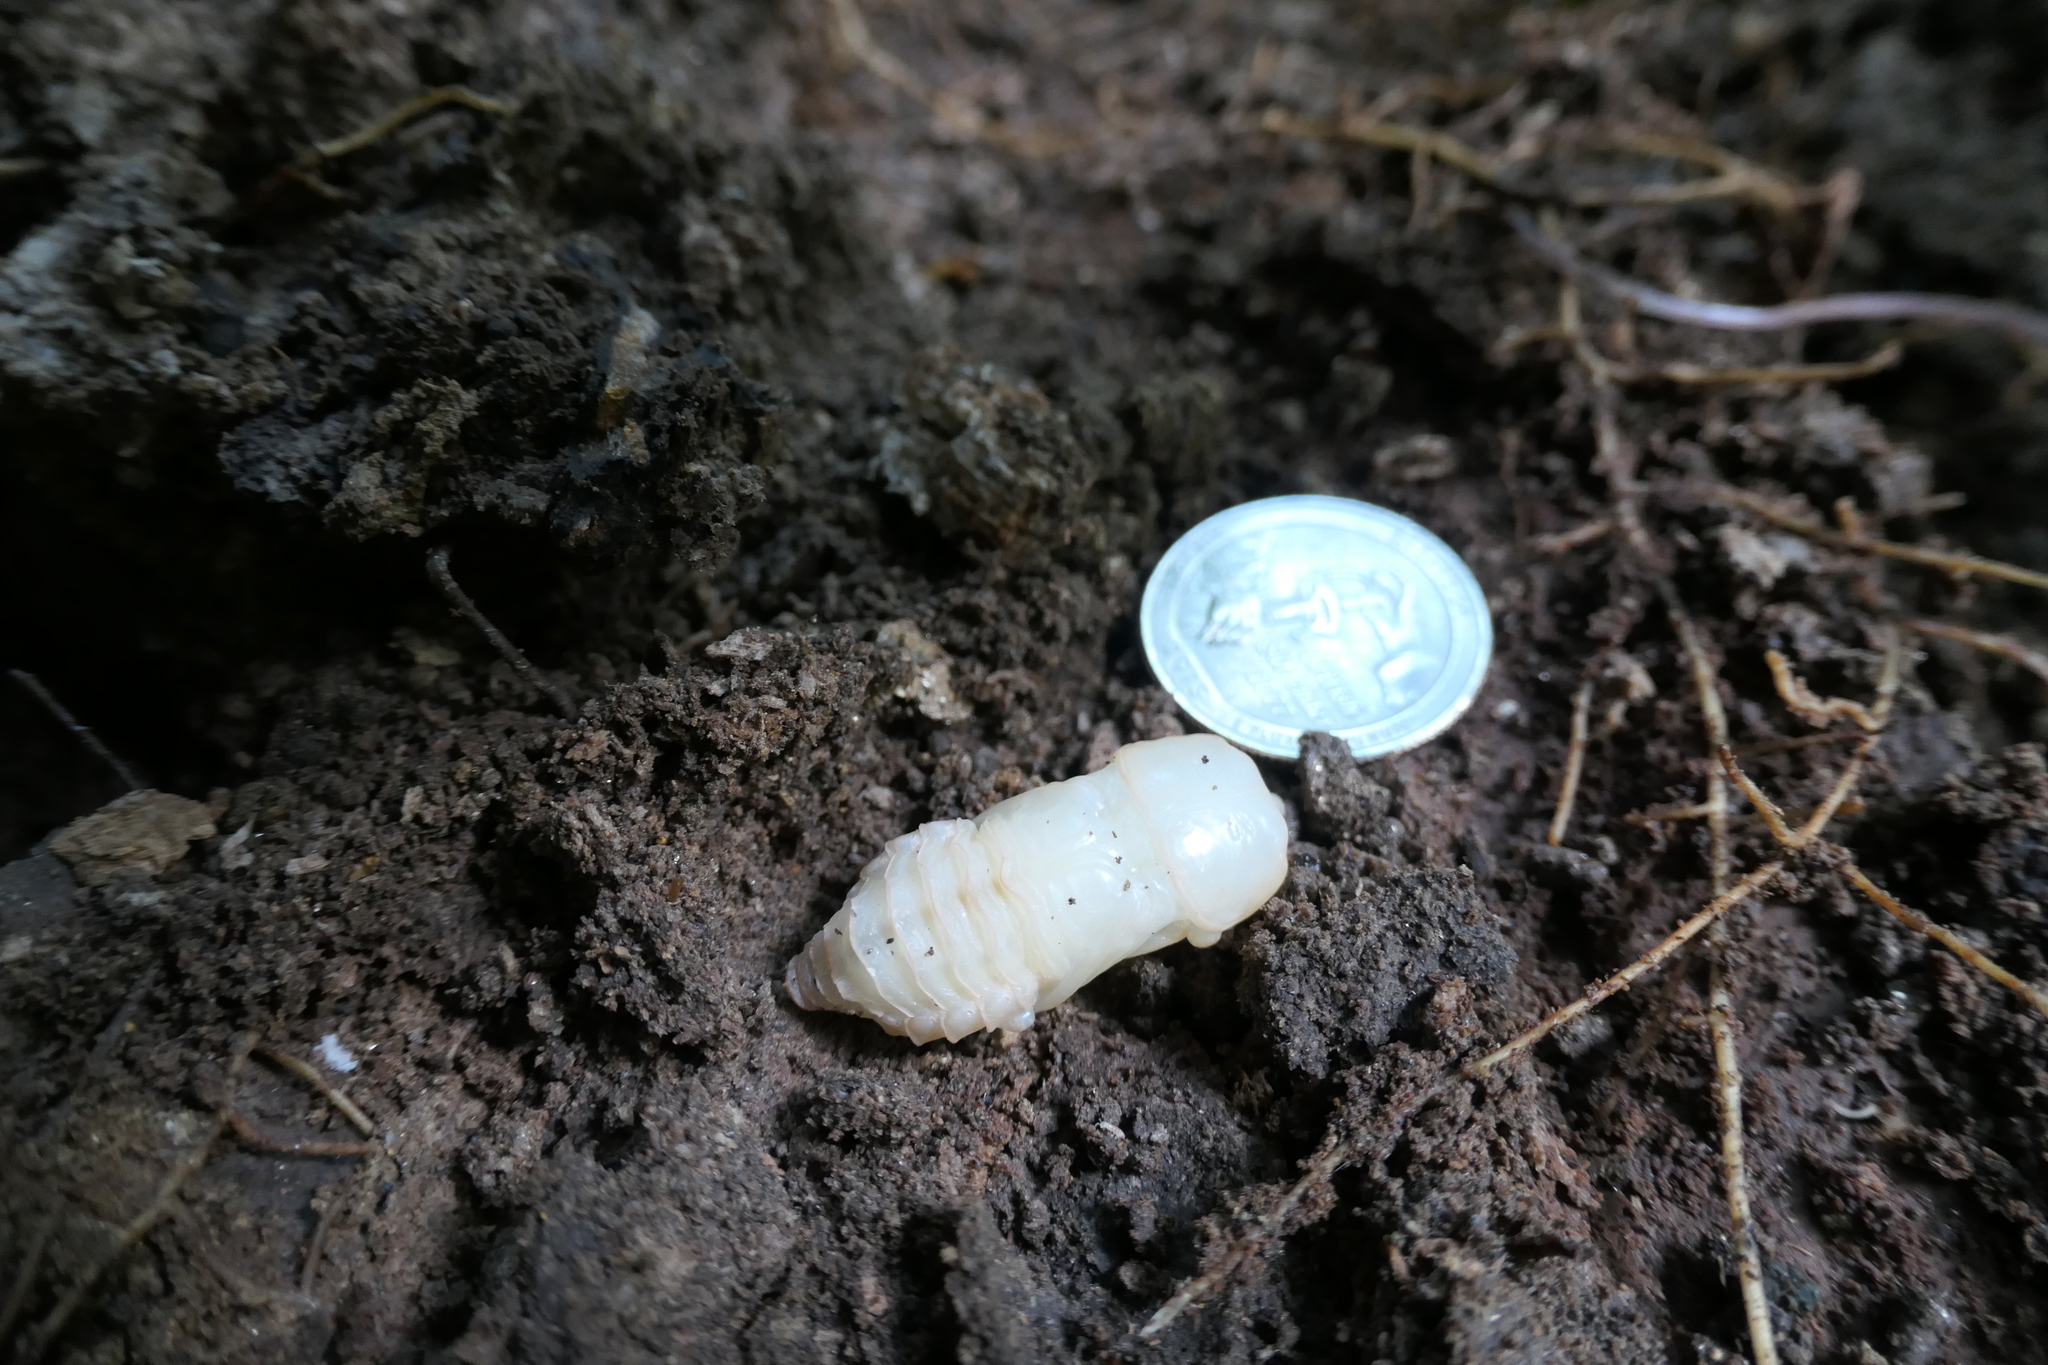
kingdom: Animalia
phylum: Arthropoda
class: Insecta
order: Coleoptera
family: Passalidae
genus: Odontotaenius
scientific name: Odontotaenius disjunctus
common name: Patent leather beetle
